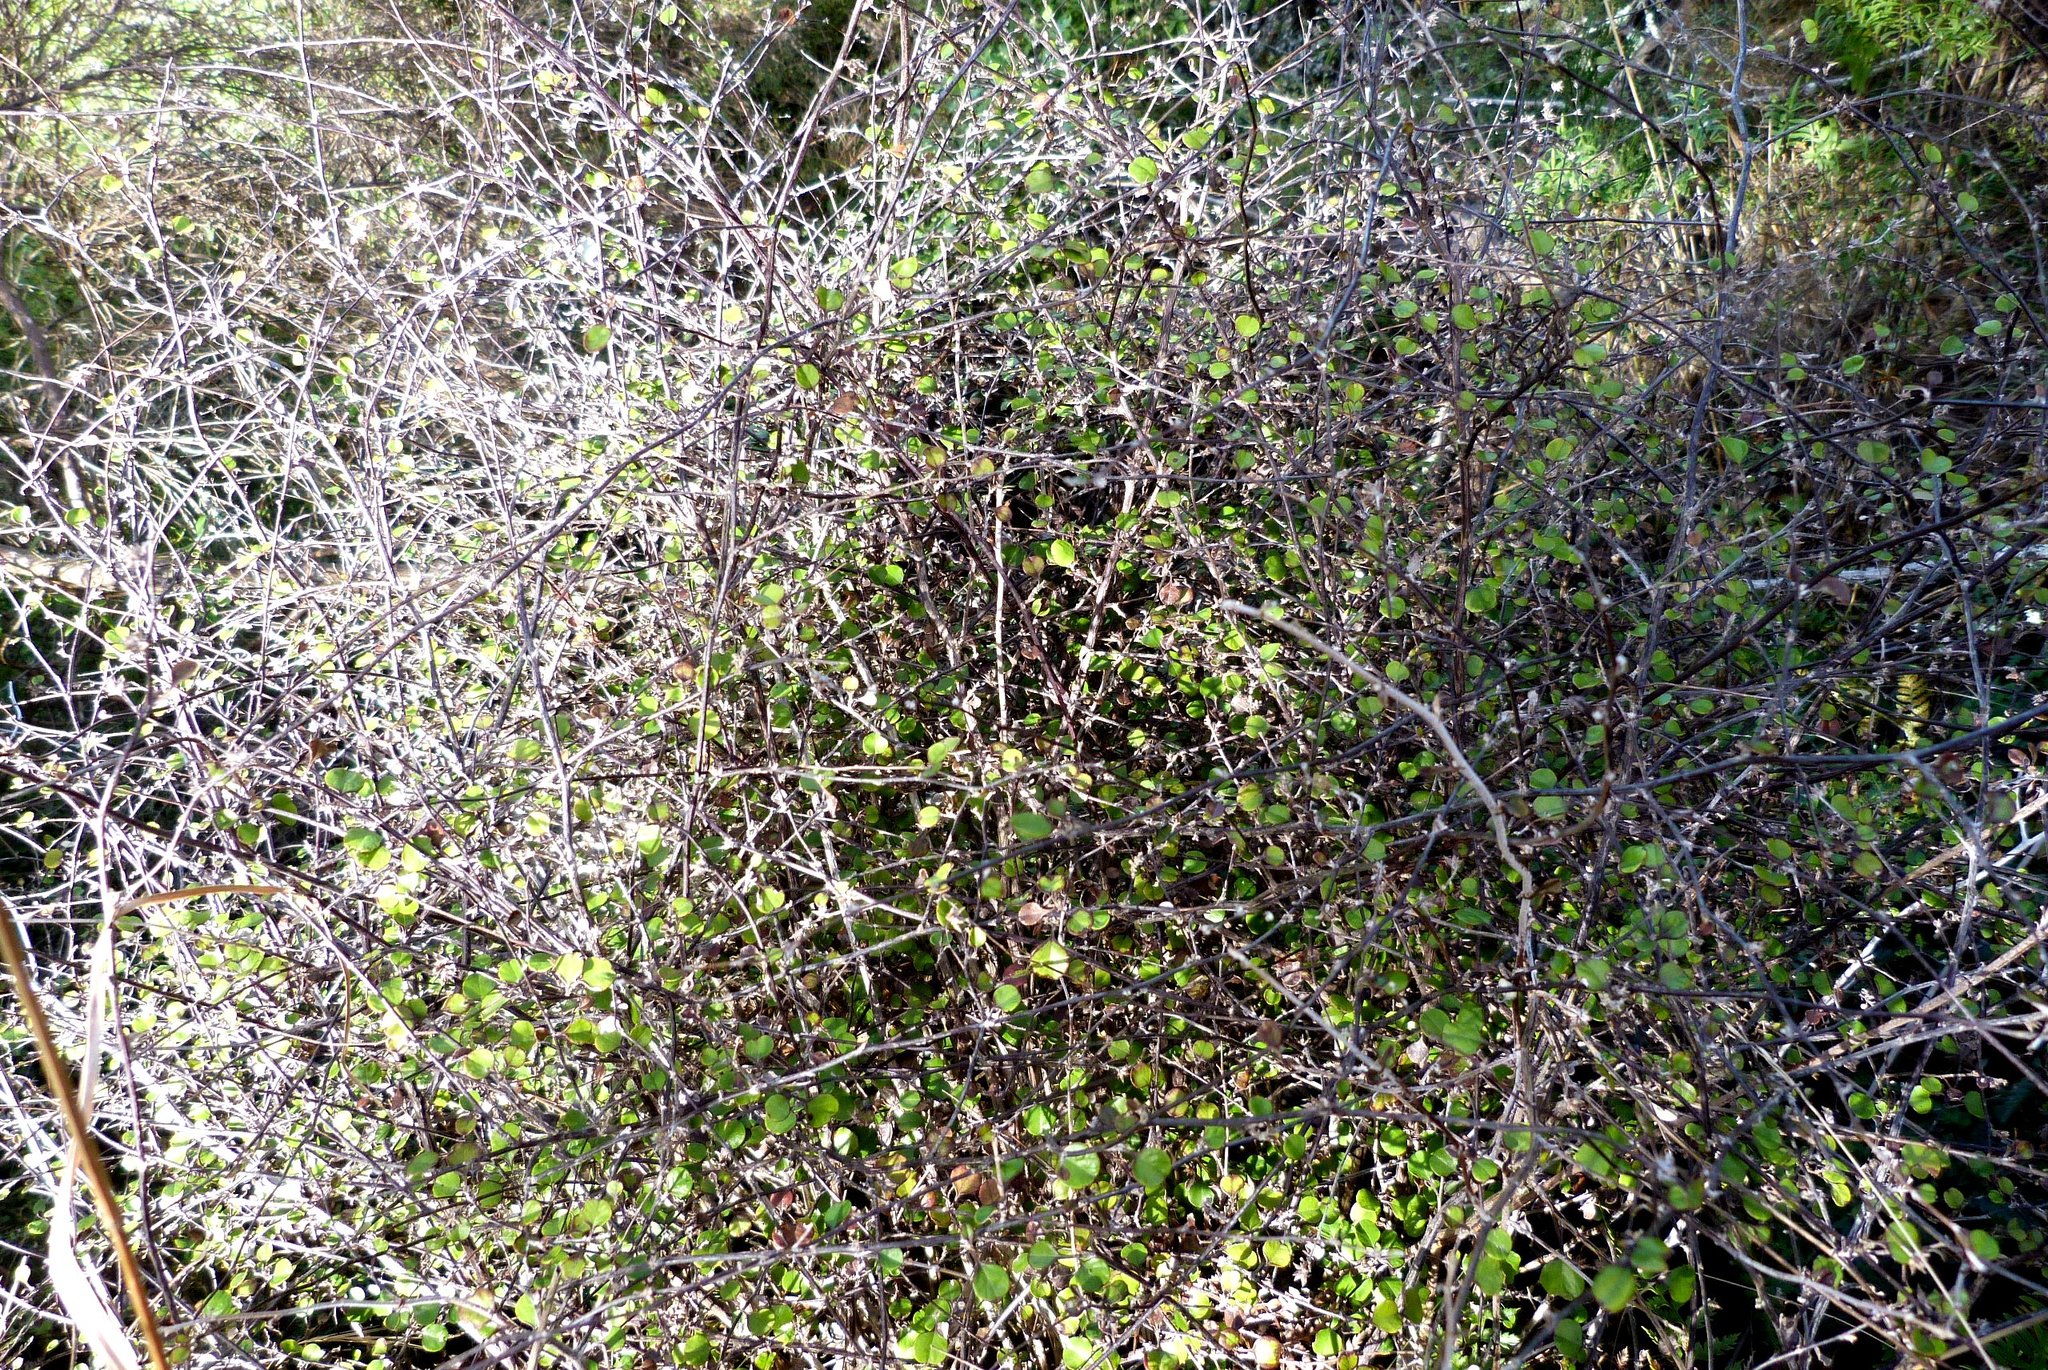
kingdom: Plantae
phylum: Tracheophyta
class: Magnoliopsida
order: Asterales
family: Asteraceae
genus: Ozothamnus
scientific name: Ozothamnus glomeratus
